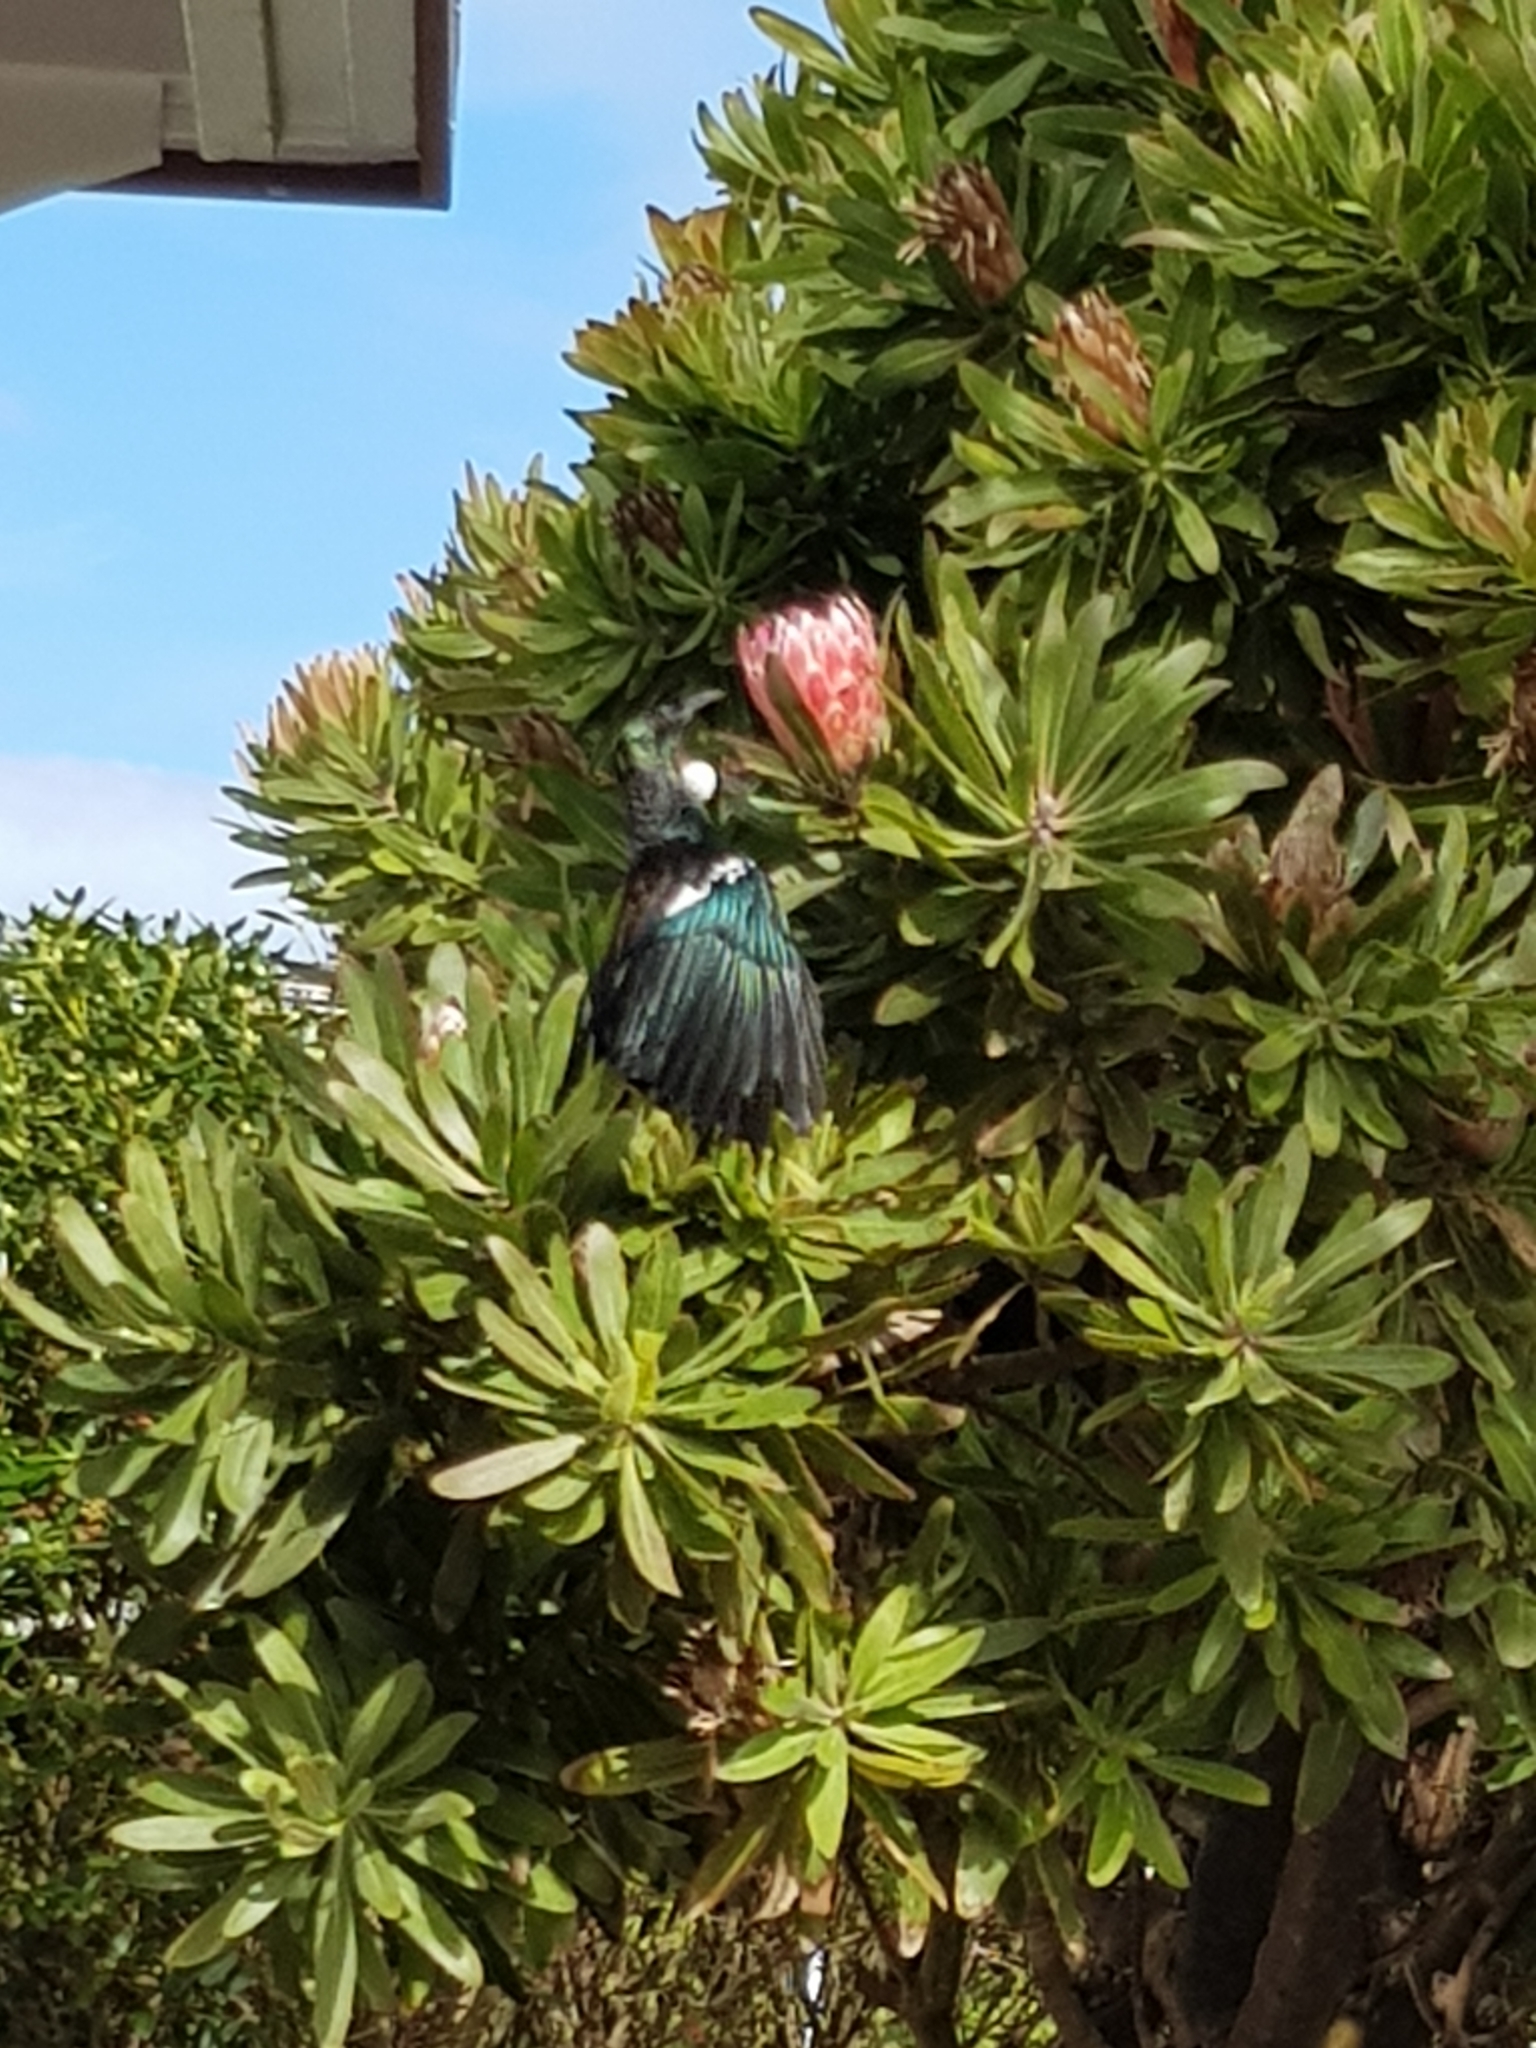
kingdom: Animalia
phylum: Chordata
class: Aves
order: Passeriformes
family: Meliphagidae
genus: Prosthemadera
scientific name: Prosthemadera novaeseelandiae
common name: Tui
